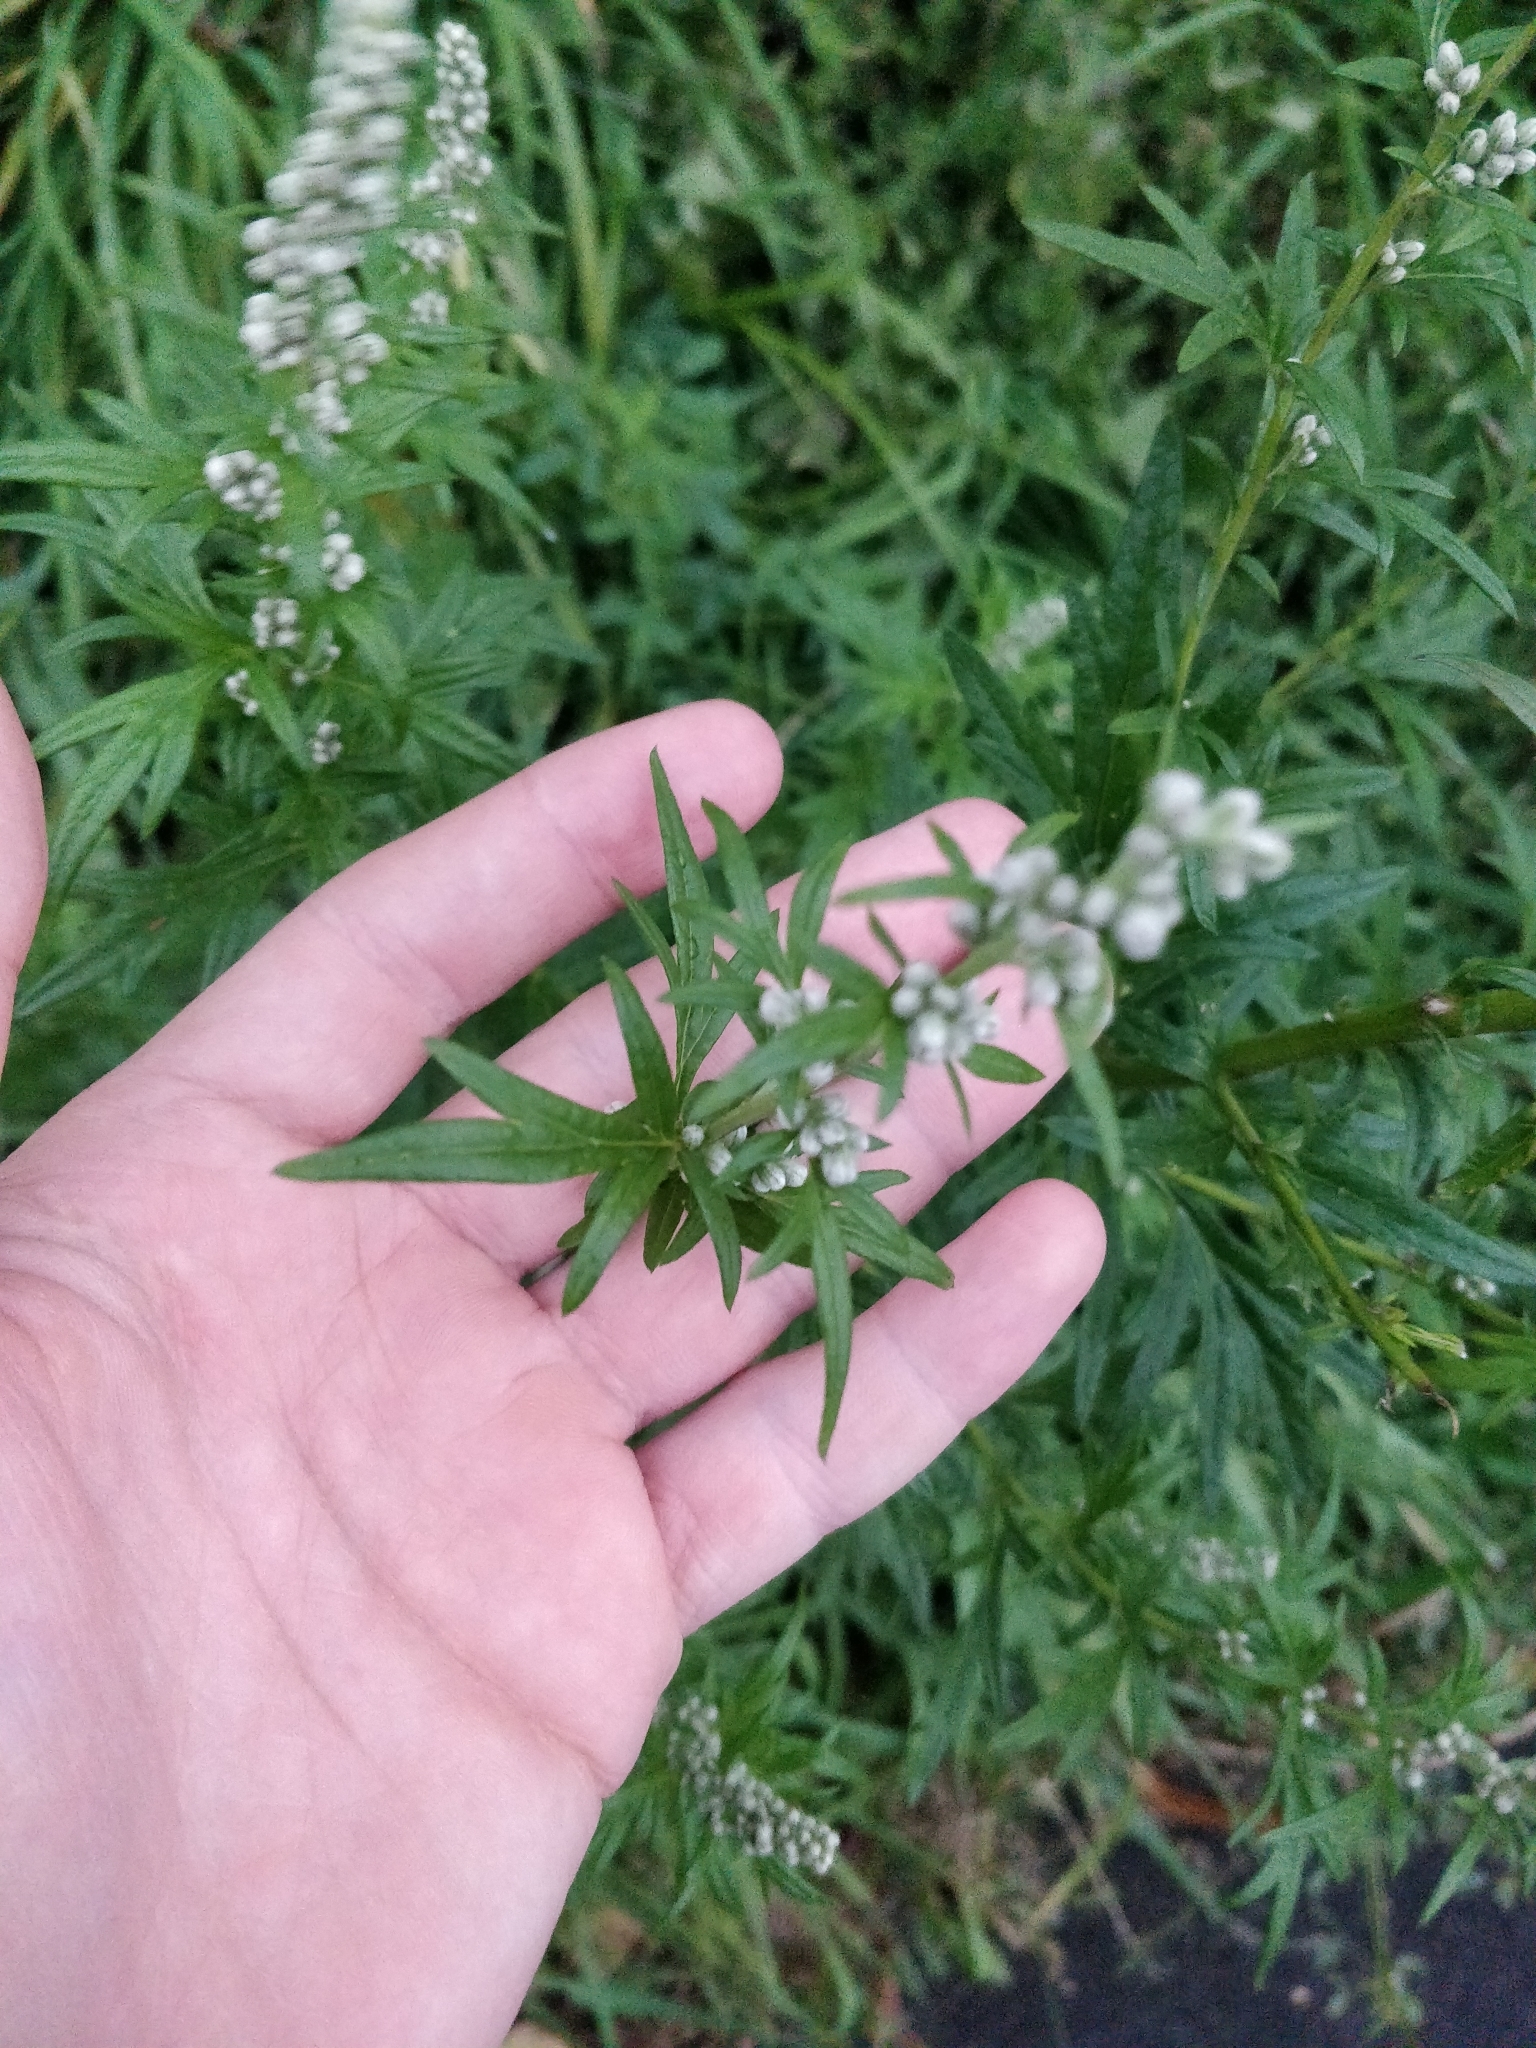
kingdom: Plantae
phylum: Tracheophyta
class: Magnoliopsida
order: Asterales
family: Asteraceae
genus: Artemisia
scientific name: Artemisia vulgaris
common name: Mugwort
